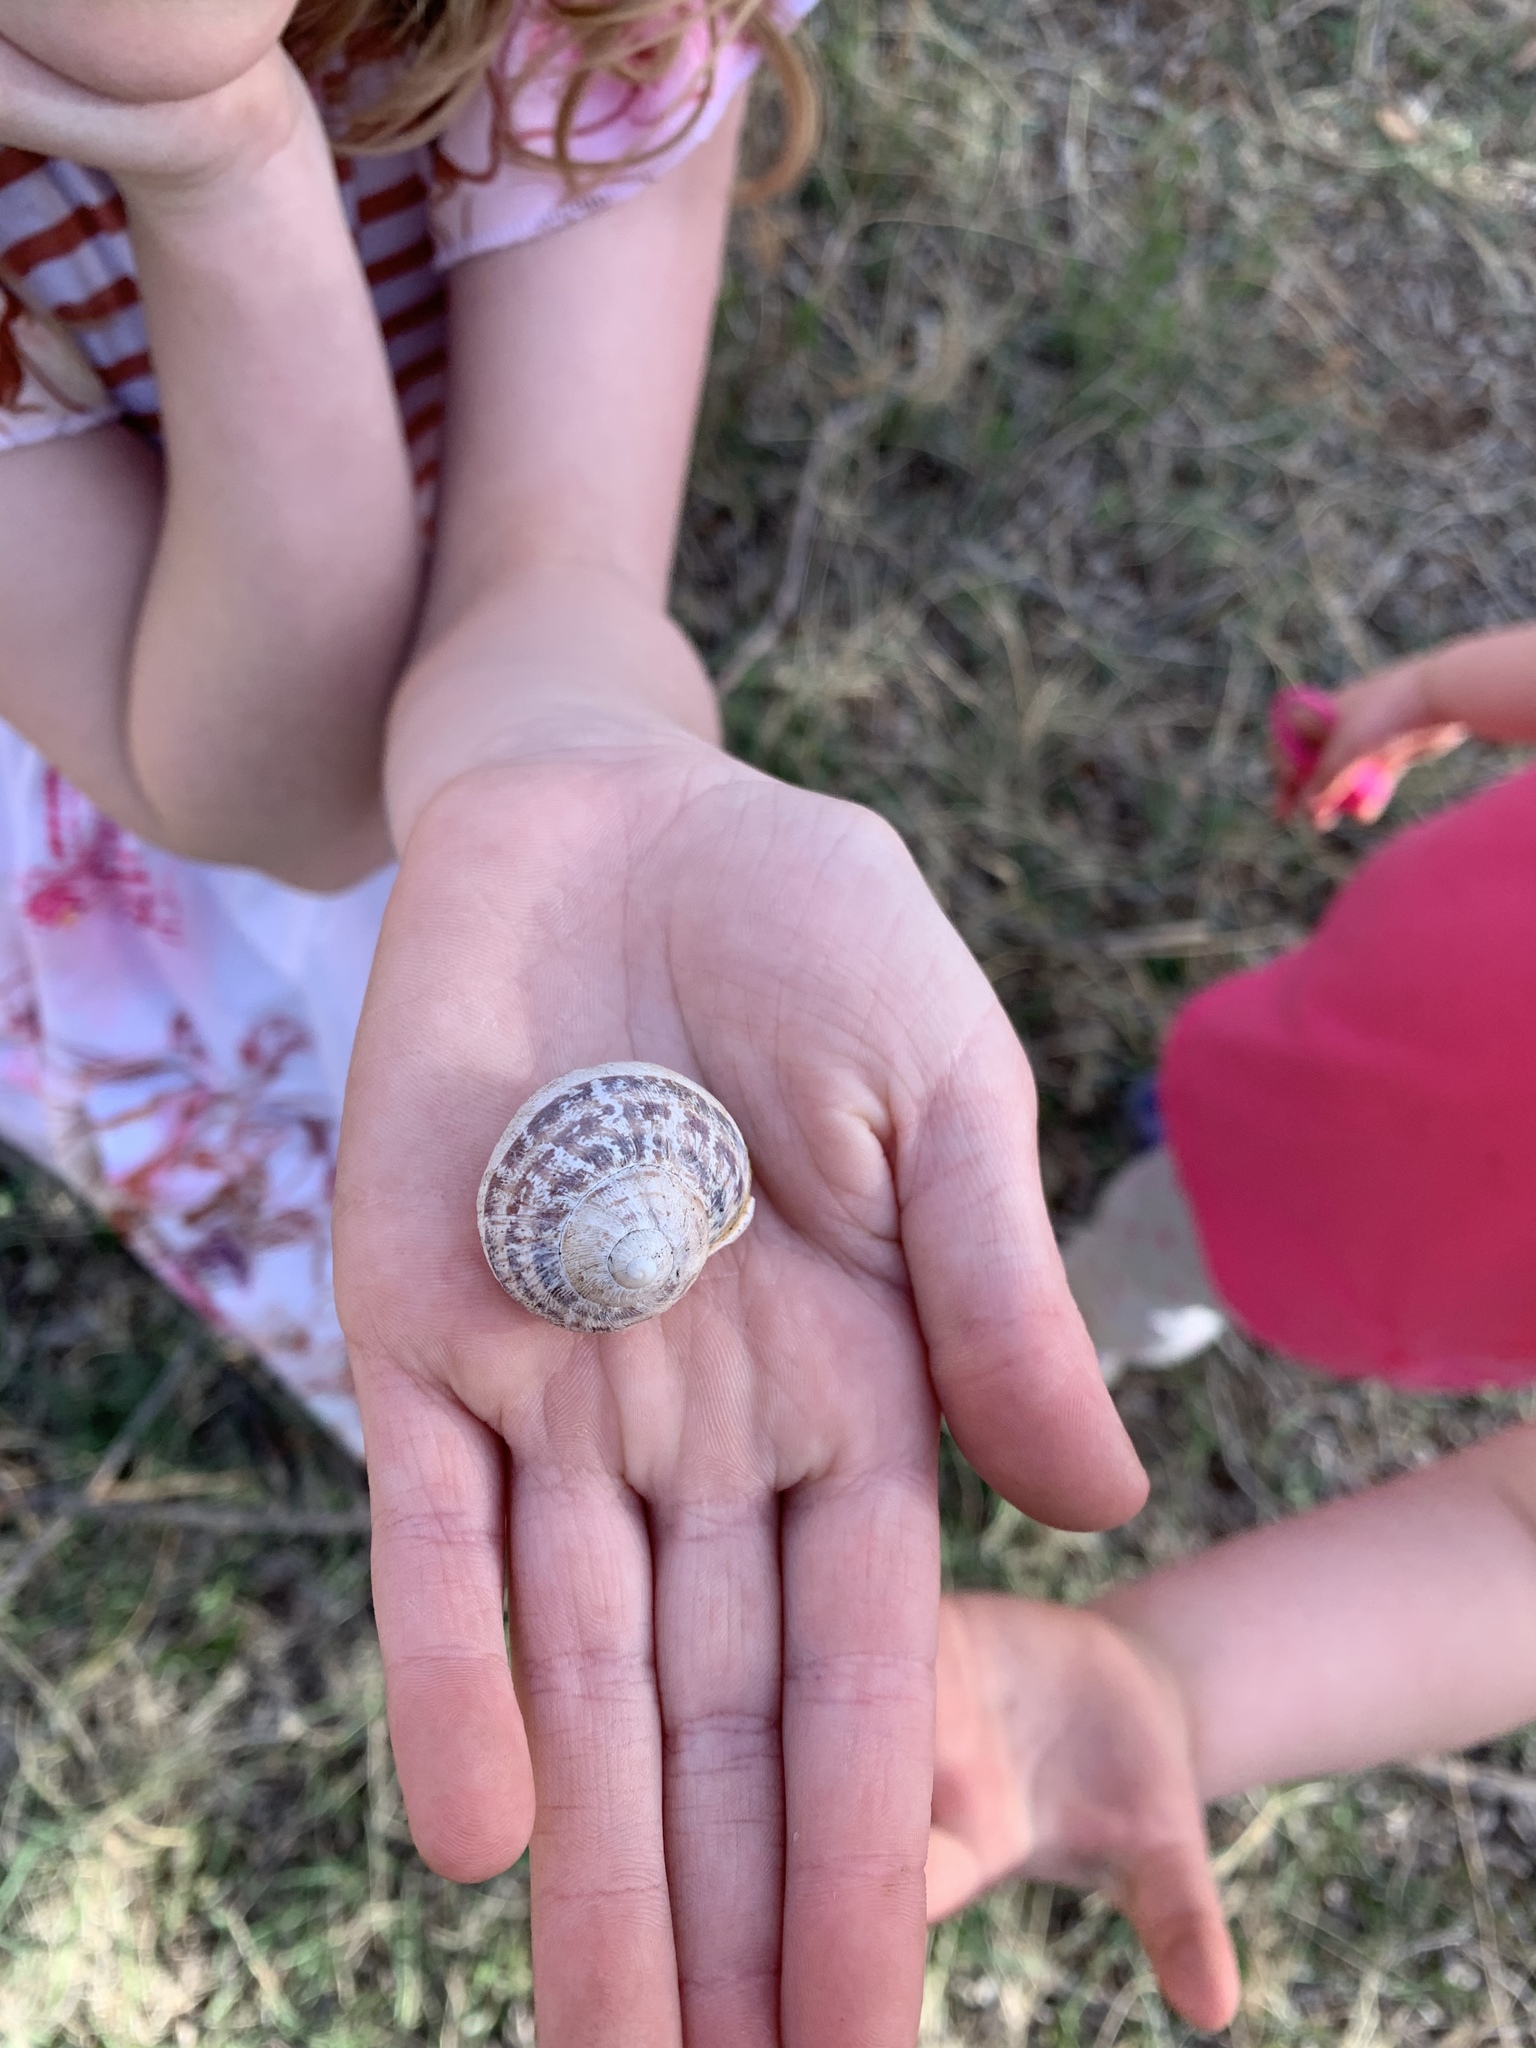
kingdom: Animalia
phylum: Mollusca
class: Gastropoda
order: Stylommatophora
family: Helicidae
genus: Cornu
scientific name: Cornu aspersum
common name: Brown garden snail
